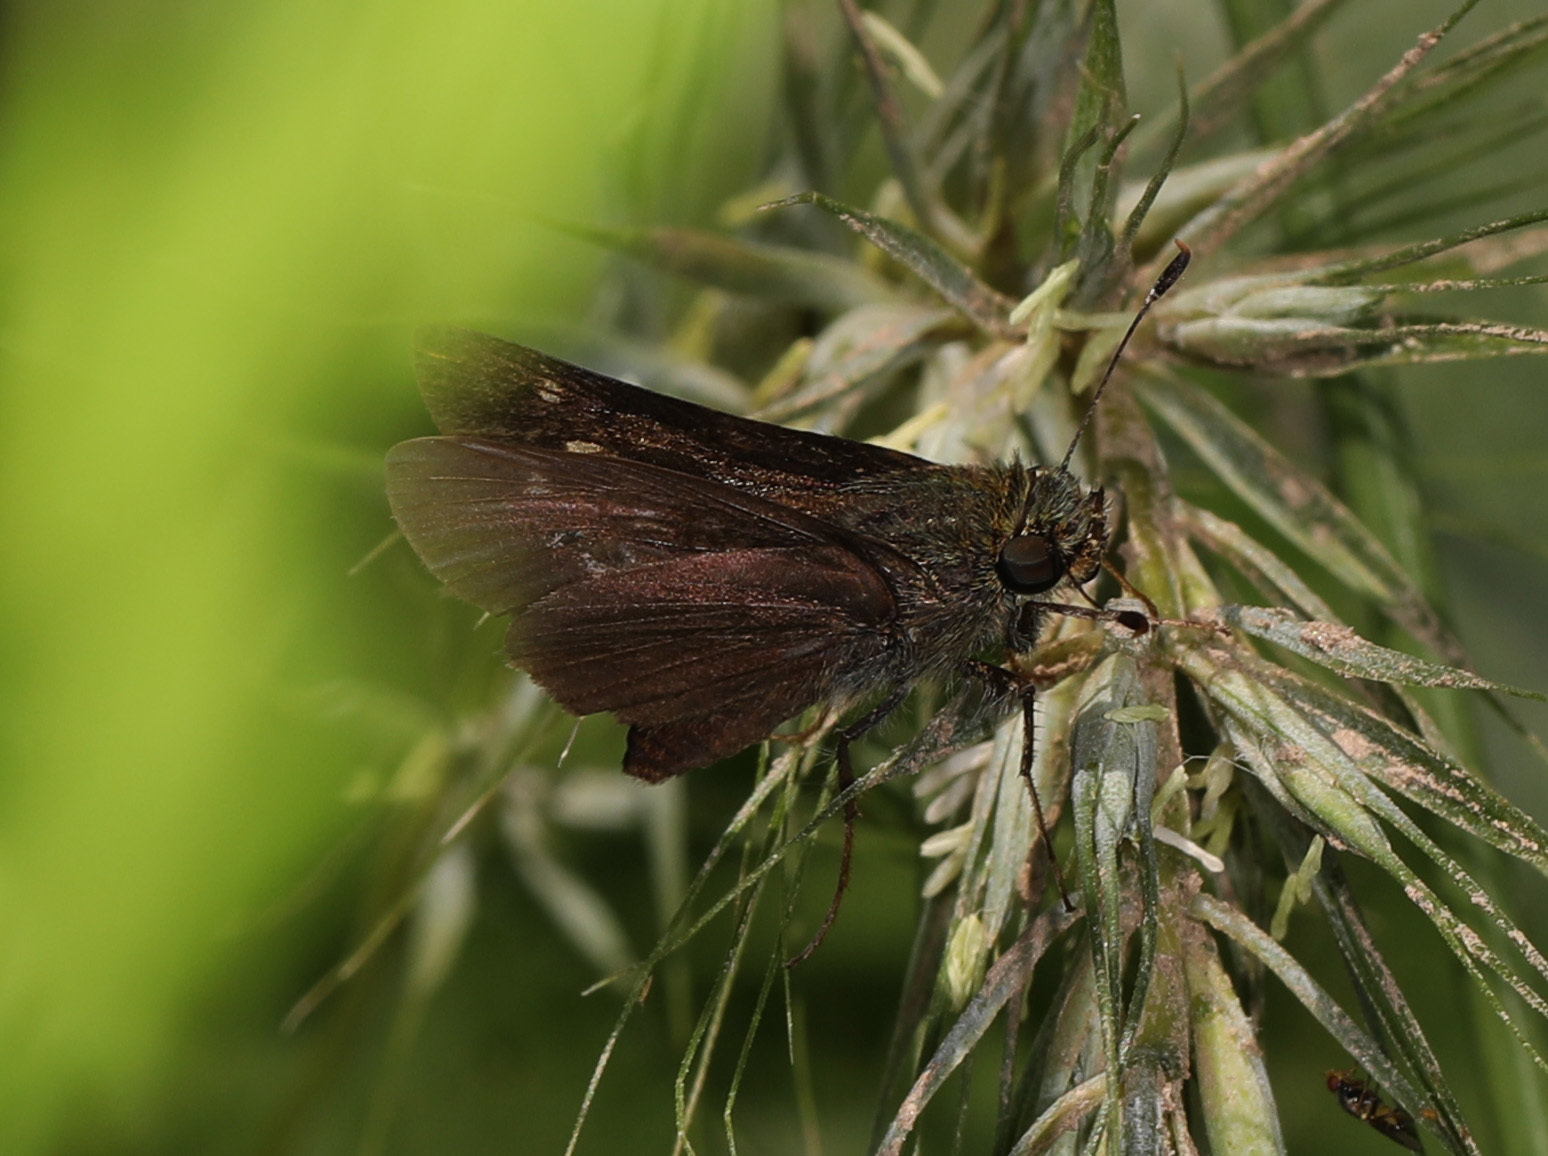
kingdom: Animalia
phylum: Arthropoda
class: Insecta
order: Lepidoptera
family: Hesperiidae
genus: Vernia
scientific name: Vernia verna
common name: Little glassywing
